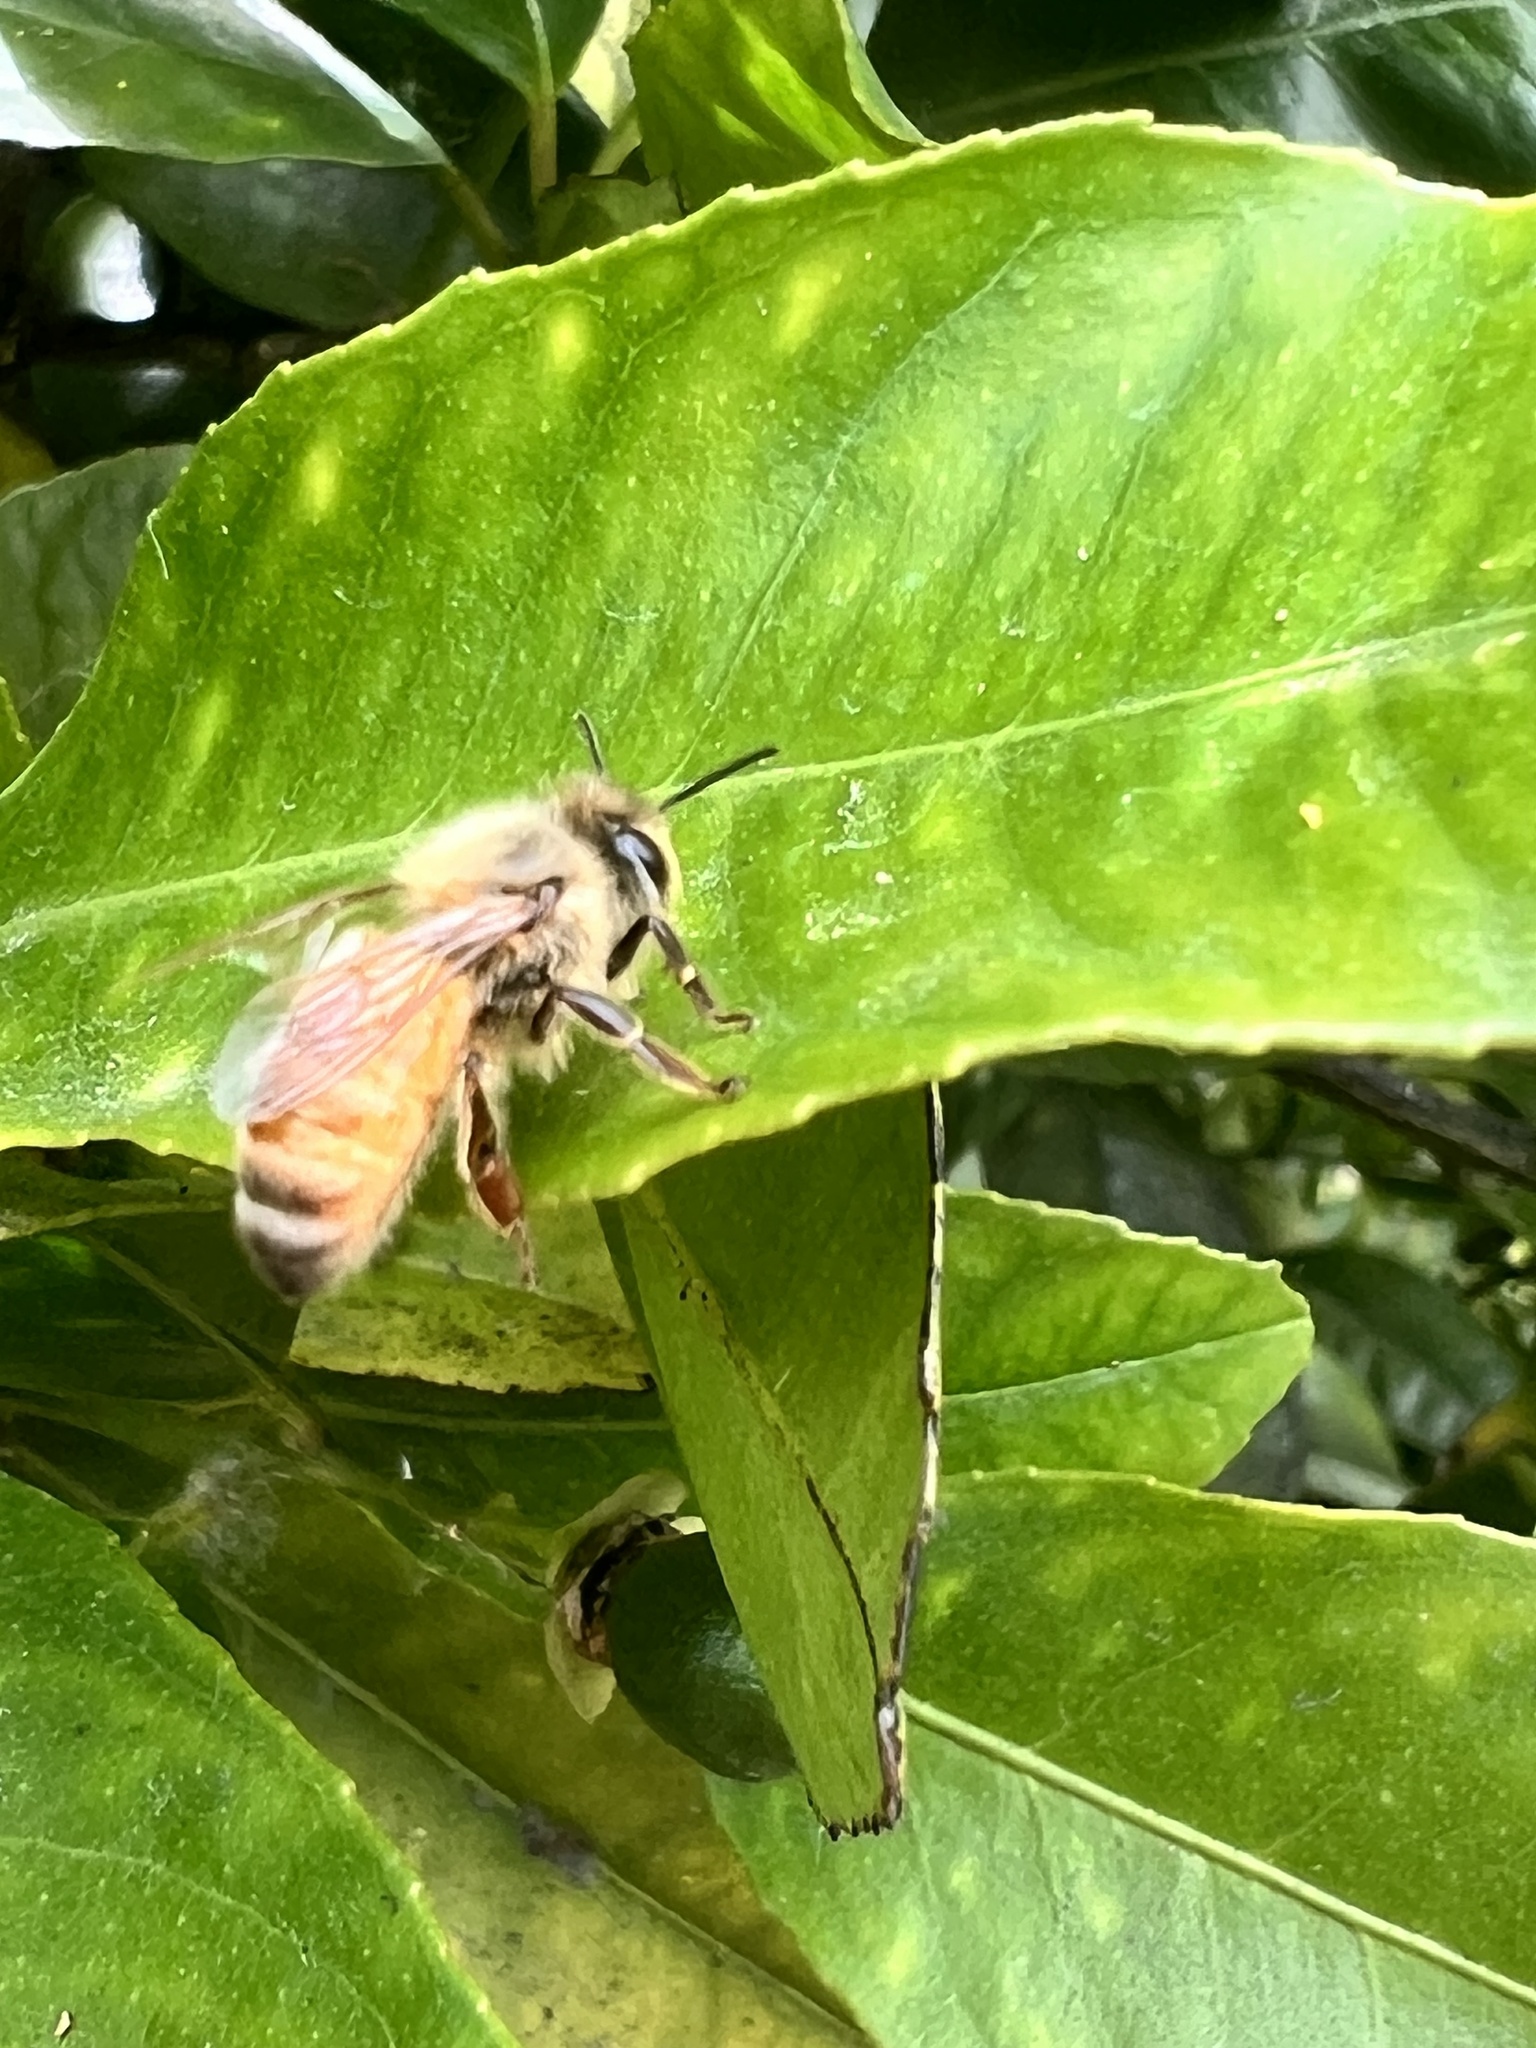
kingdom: Animalia
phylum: Arthropoda
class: Insecta
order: Hymenoptera
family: Apidae
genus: Apis
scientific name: Apis mellifera
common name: Honey bee
